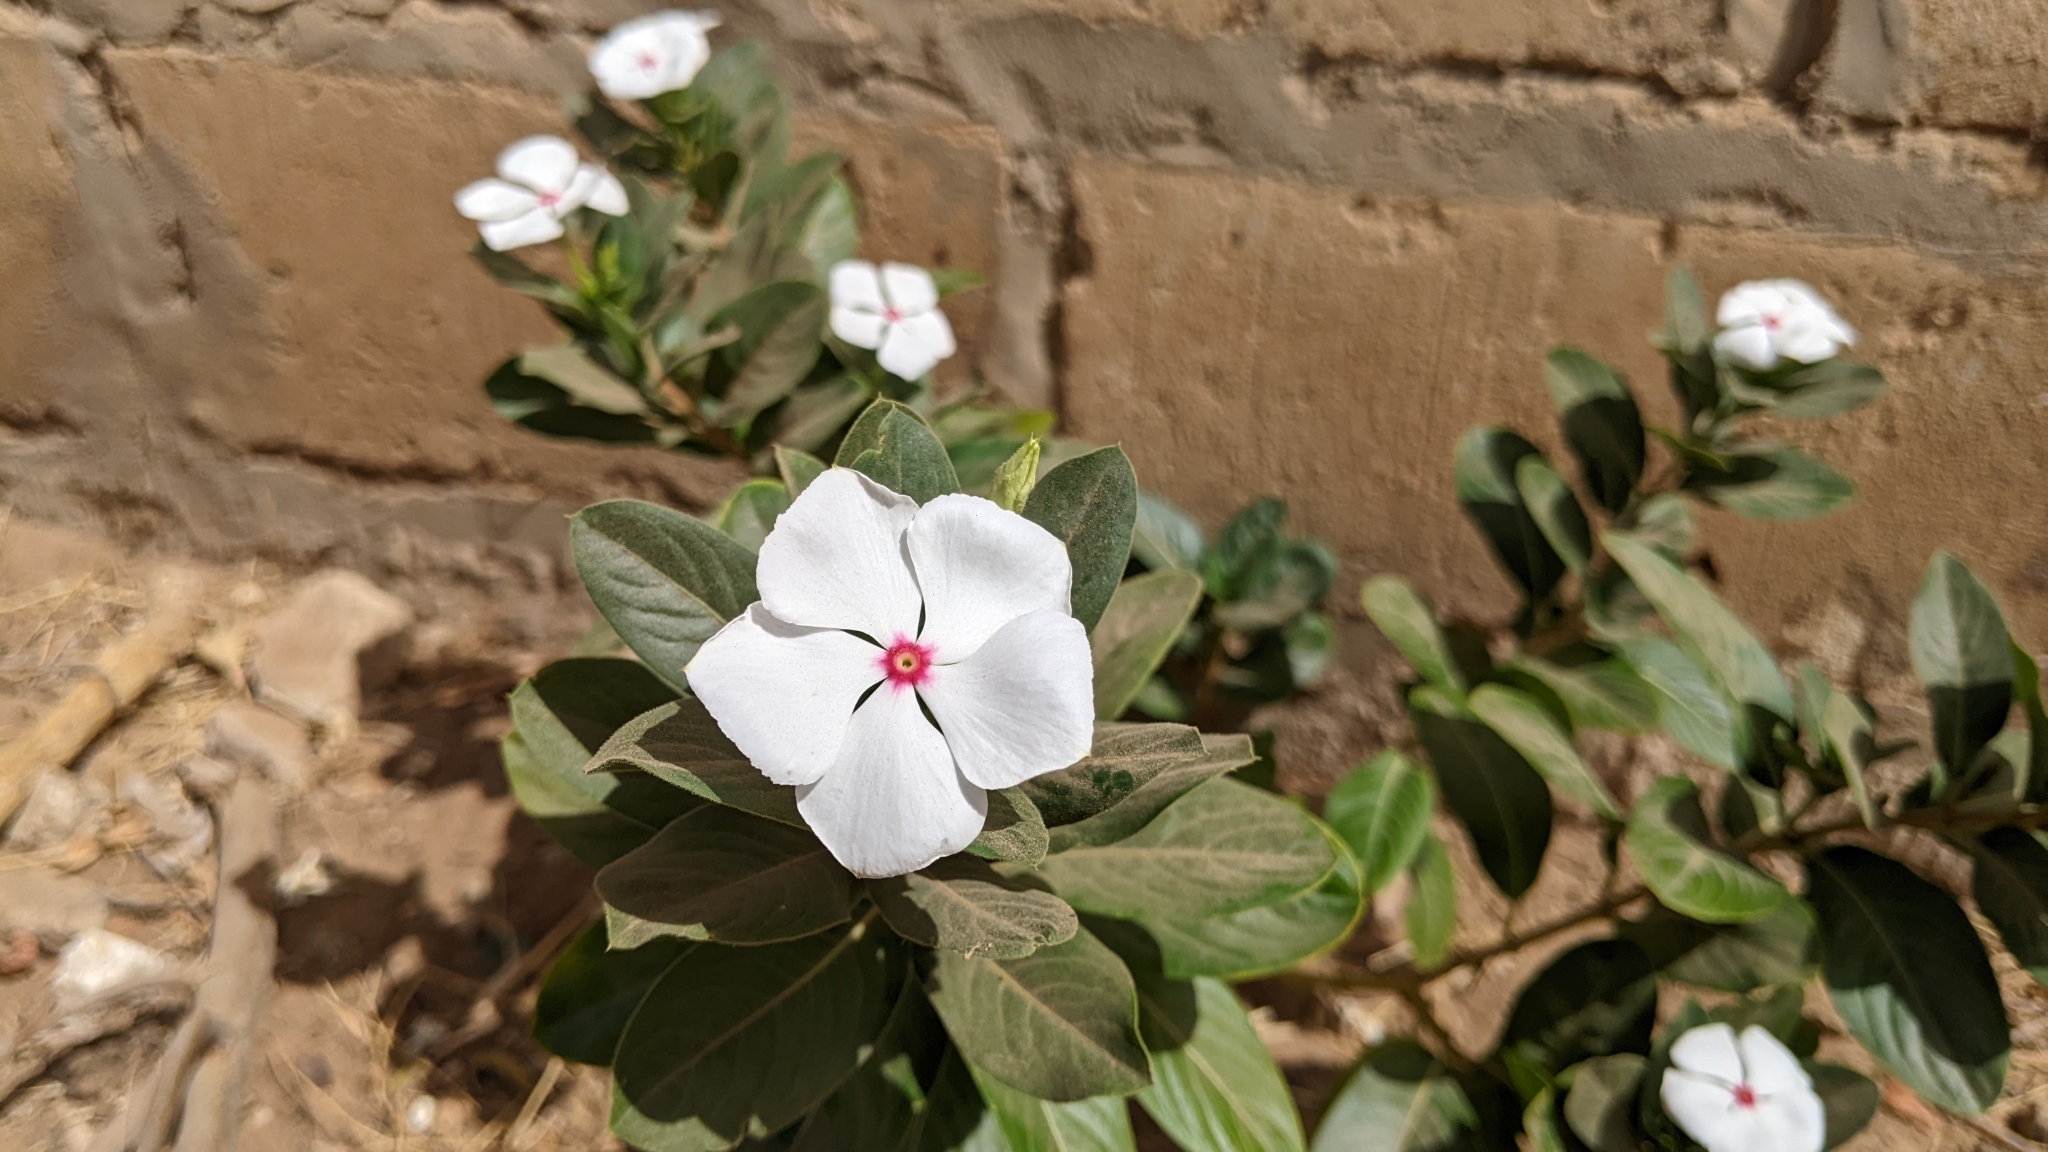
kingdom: Plantae
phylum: Tracheophyta
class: Magnoliopsida
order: Gentianales
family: Apocynaceae
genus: Catharanthus
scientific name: Catharanthus roseus
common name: Madagascar periwinkle
